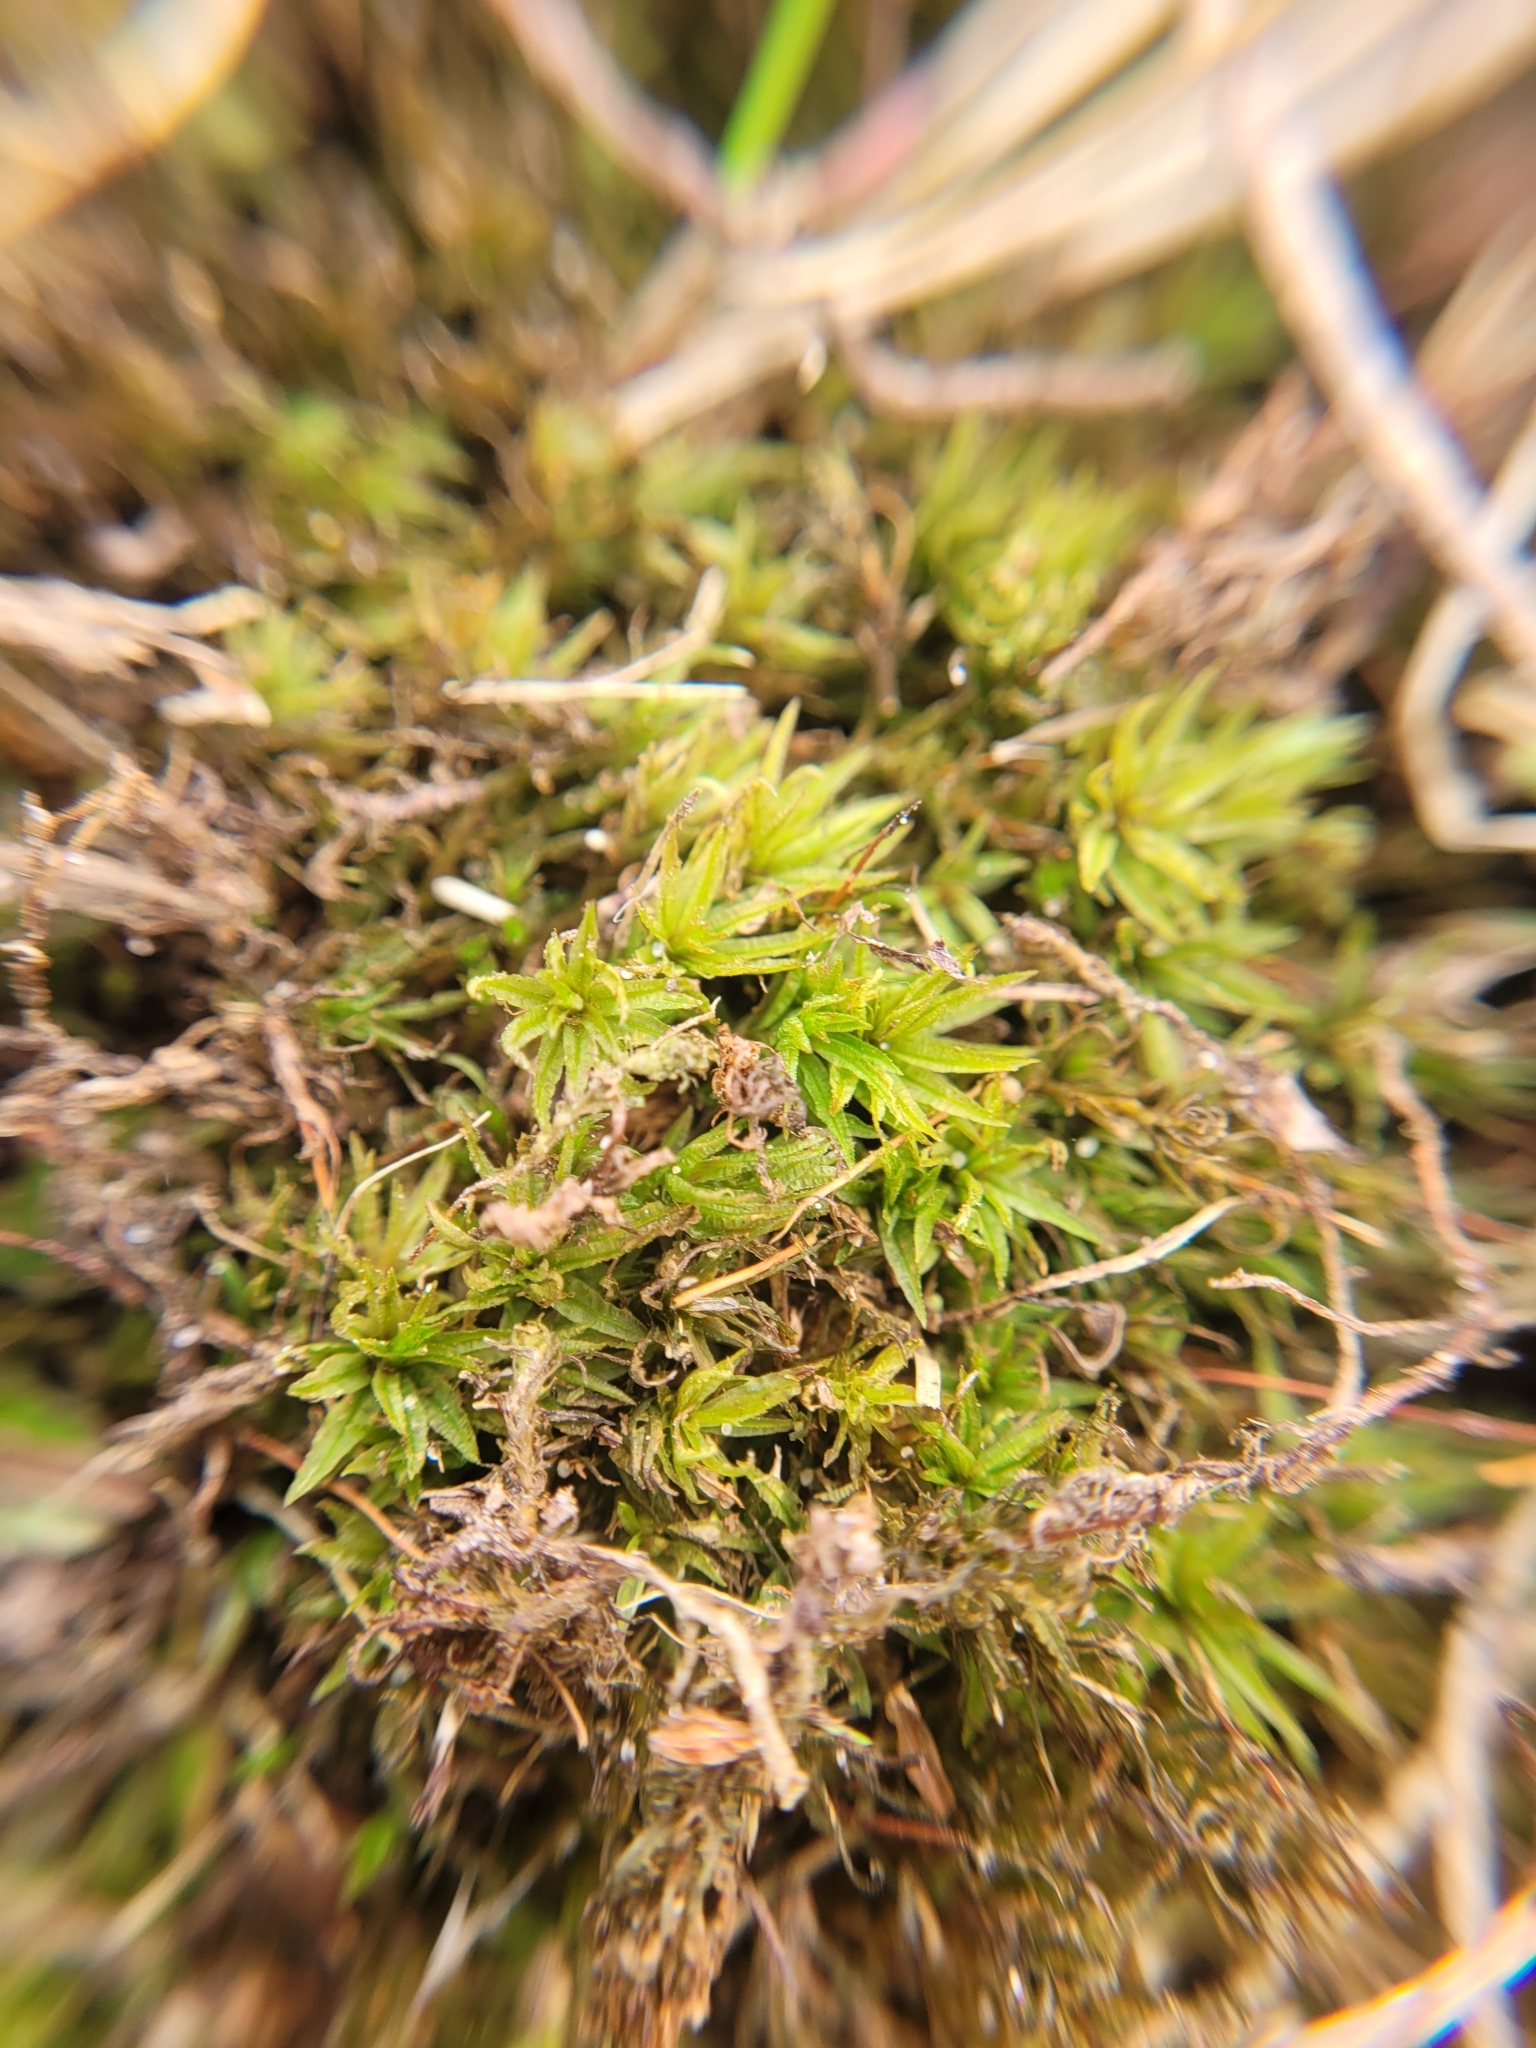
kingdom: Plantae
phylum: Bryophyta
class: Polytrichopsida
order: Polytrichales
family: Polytrichaceae
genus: Atrichum
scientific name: Atrichum undulatum
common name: Common smoothcap
